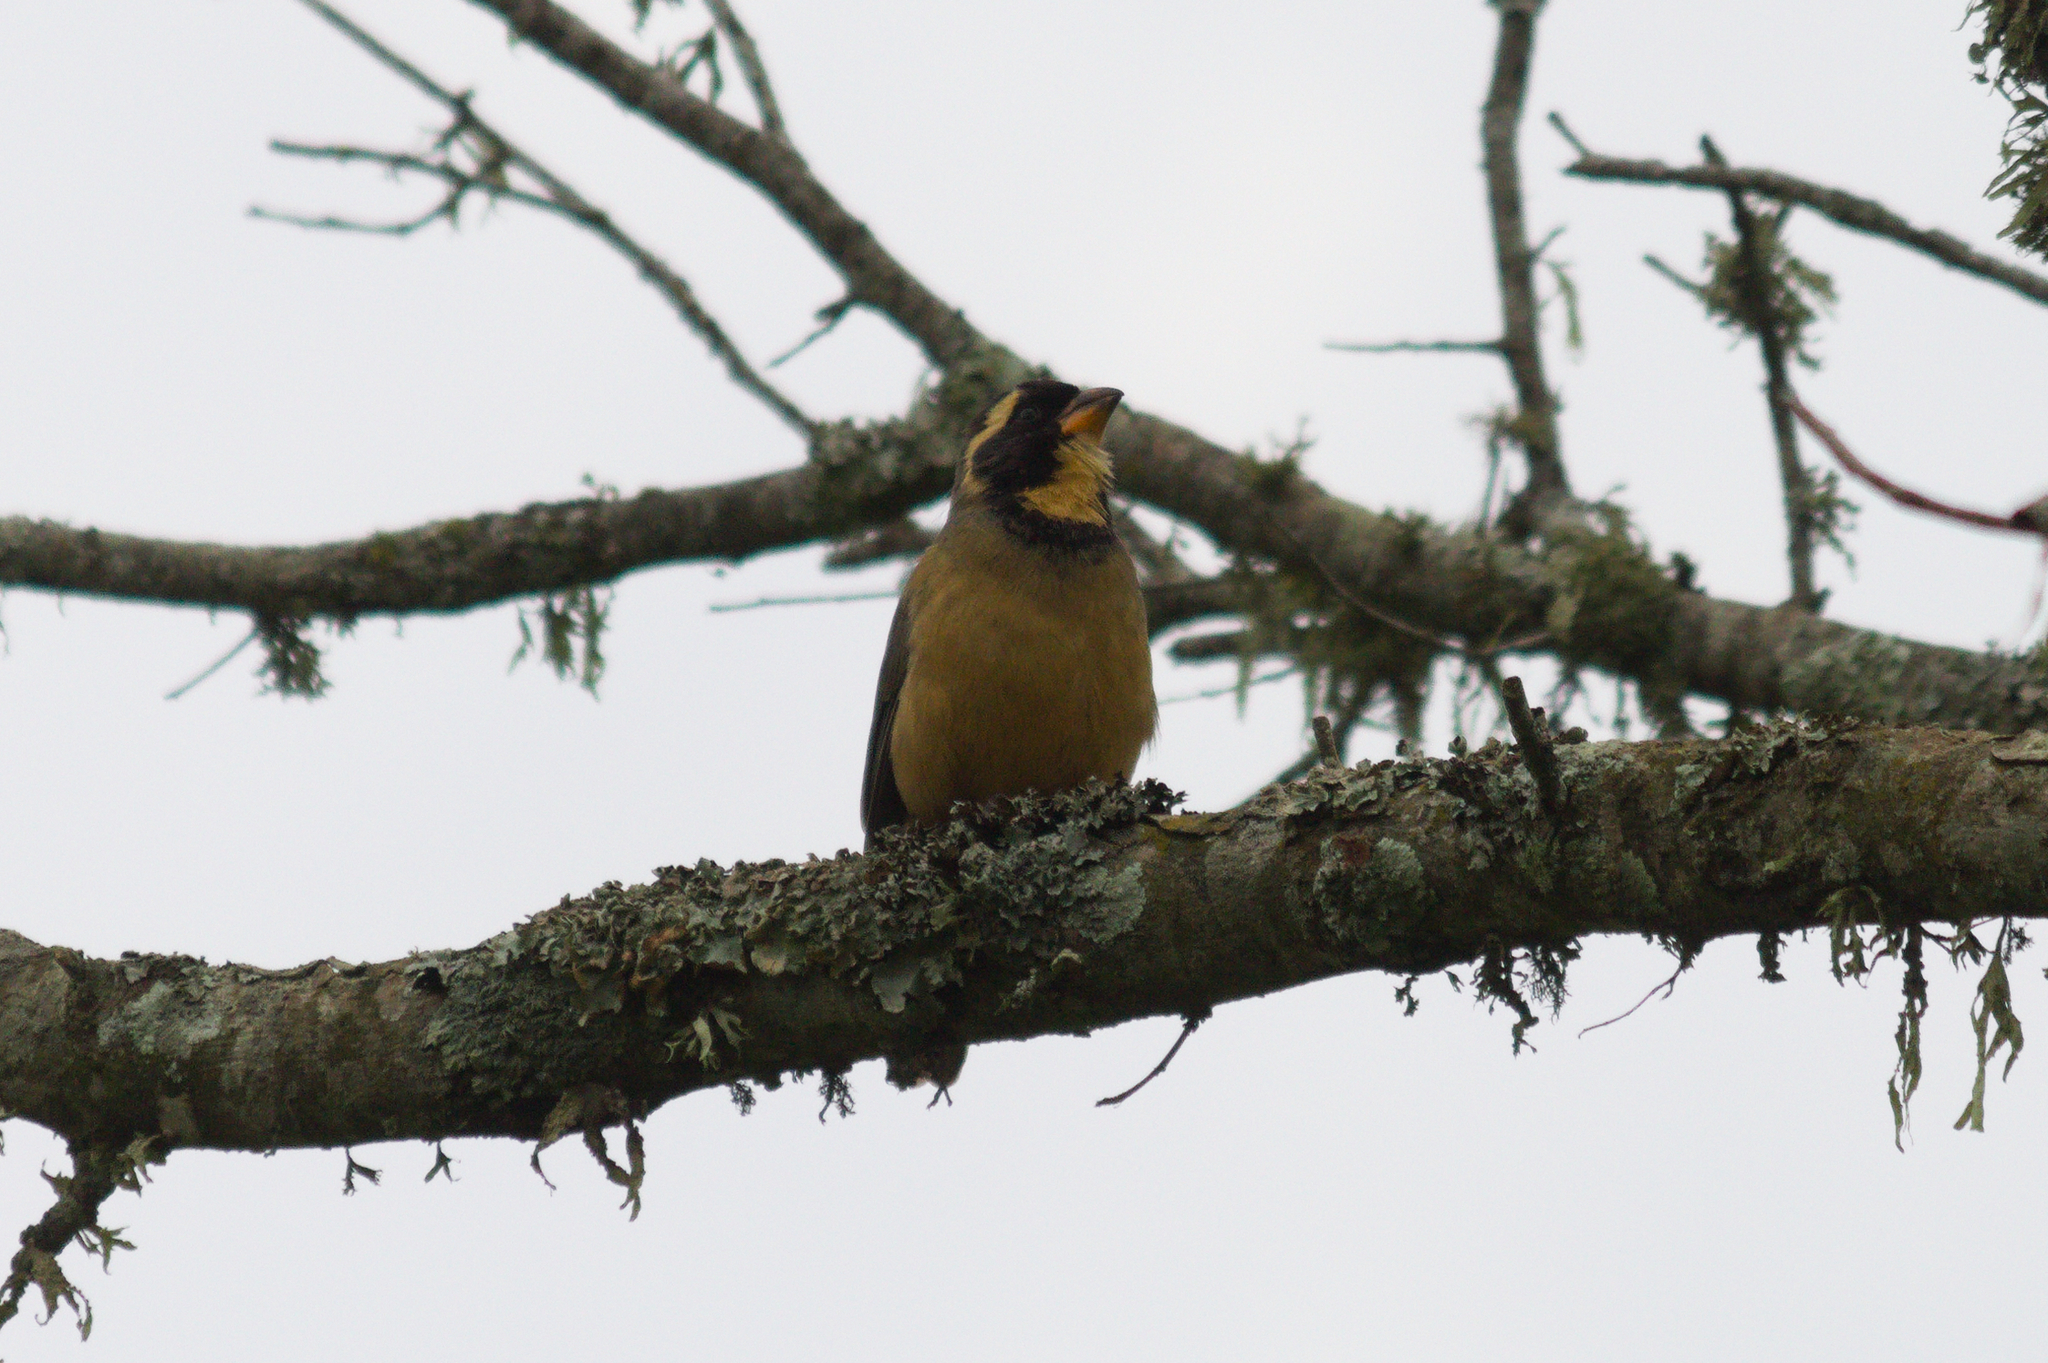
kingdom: Animalia
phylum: Chordata
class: Aves
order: Passeriformes
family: Thraupidae
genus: Saltator
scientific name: Saltator aurantiirostris
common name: Golden-billed saltator
